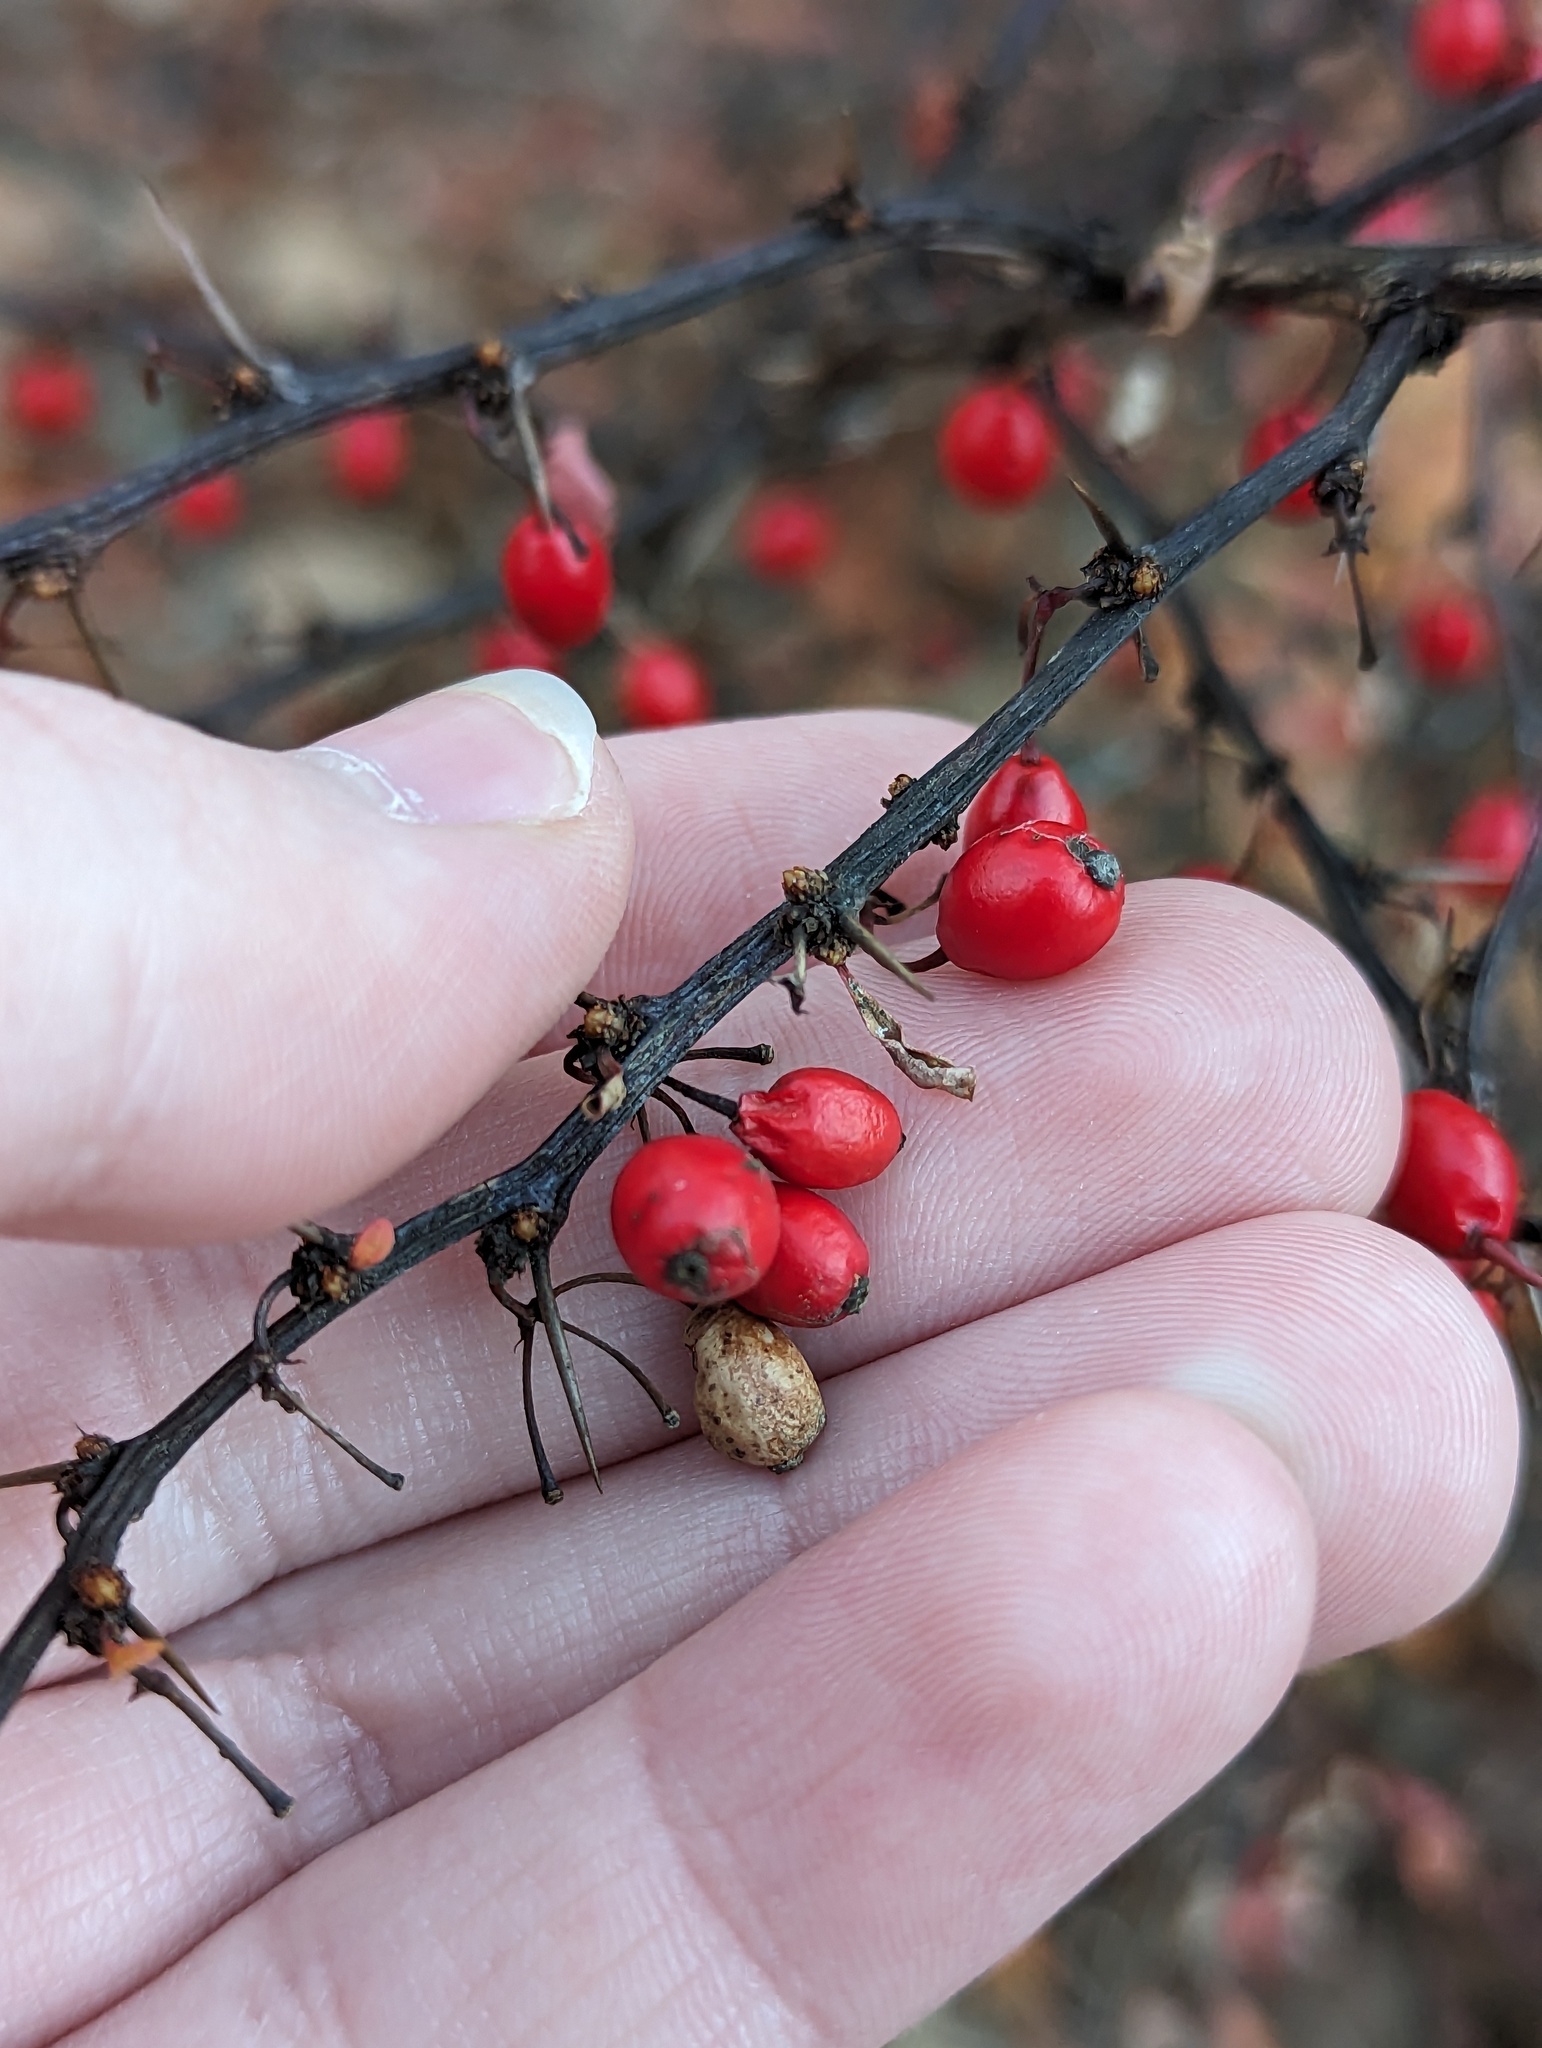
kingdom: Plantae
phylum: Tracheophyta
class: Magnoliopsida
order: Ranunculales
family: Berberidaceae
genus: Berberis
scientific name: Berberis thunbergii
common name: Japanese barberry
